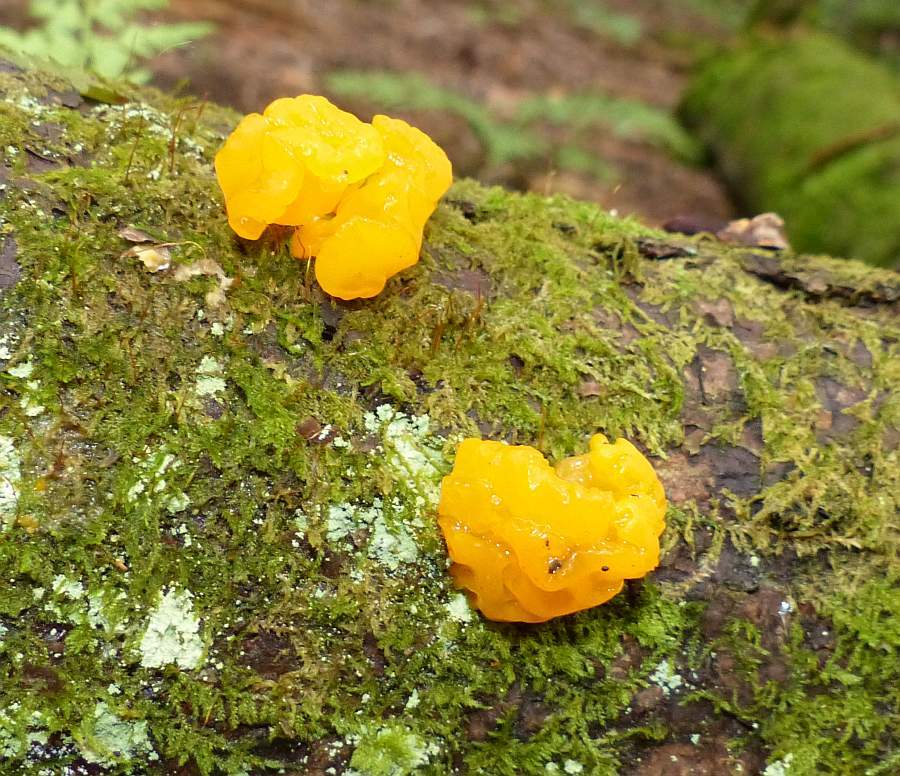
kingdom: Fungi
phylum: Basidiomycota
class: Dacrymycetes
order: Dacrymycetales
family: Dacrymycetaceae
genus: Dacrymyces
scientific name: Dacrymyces chrysospermus
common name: Orange jelly spot
